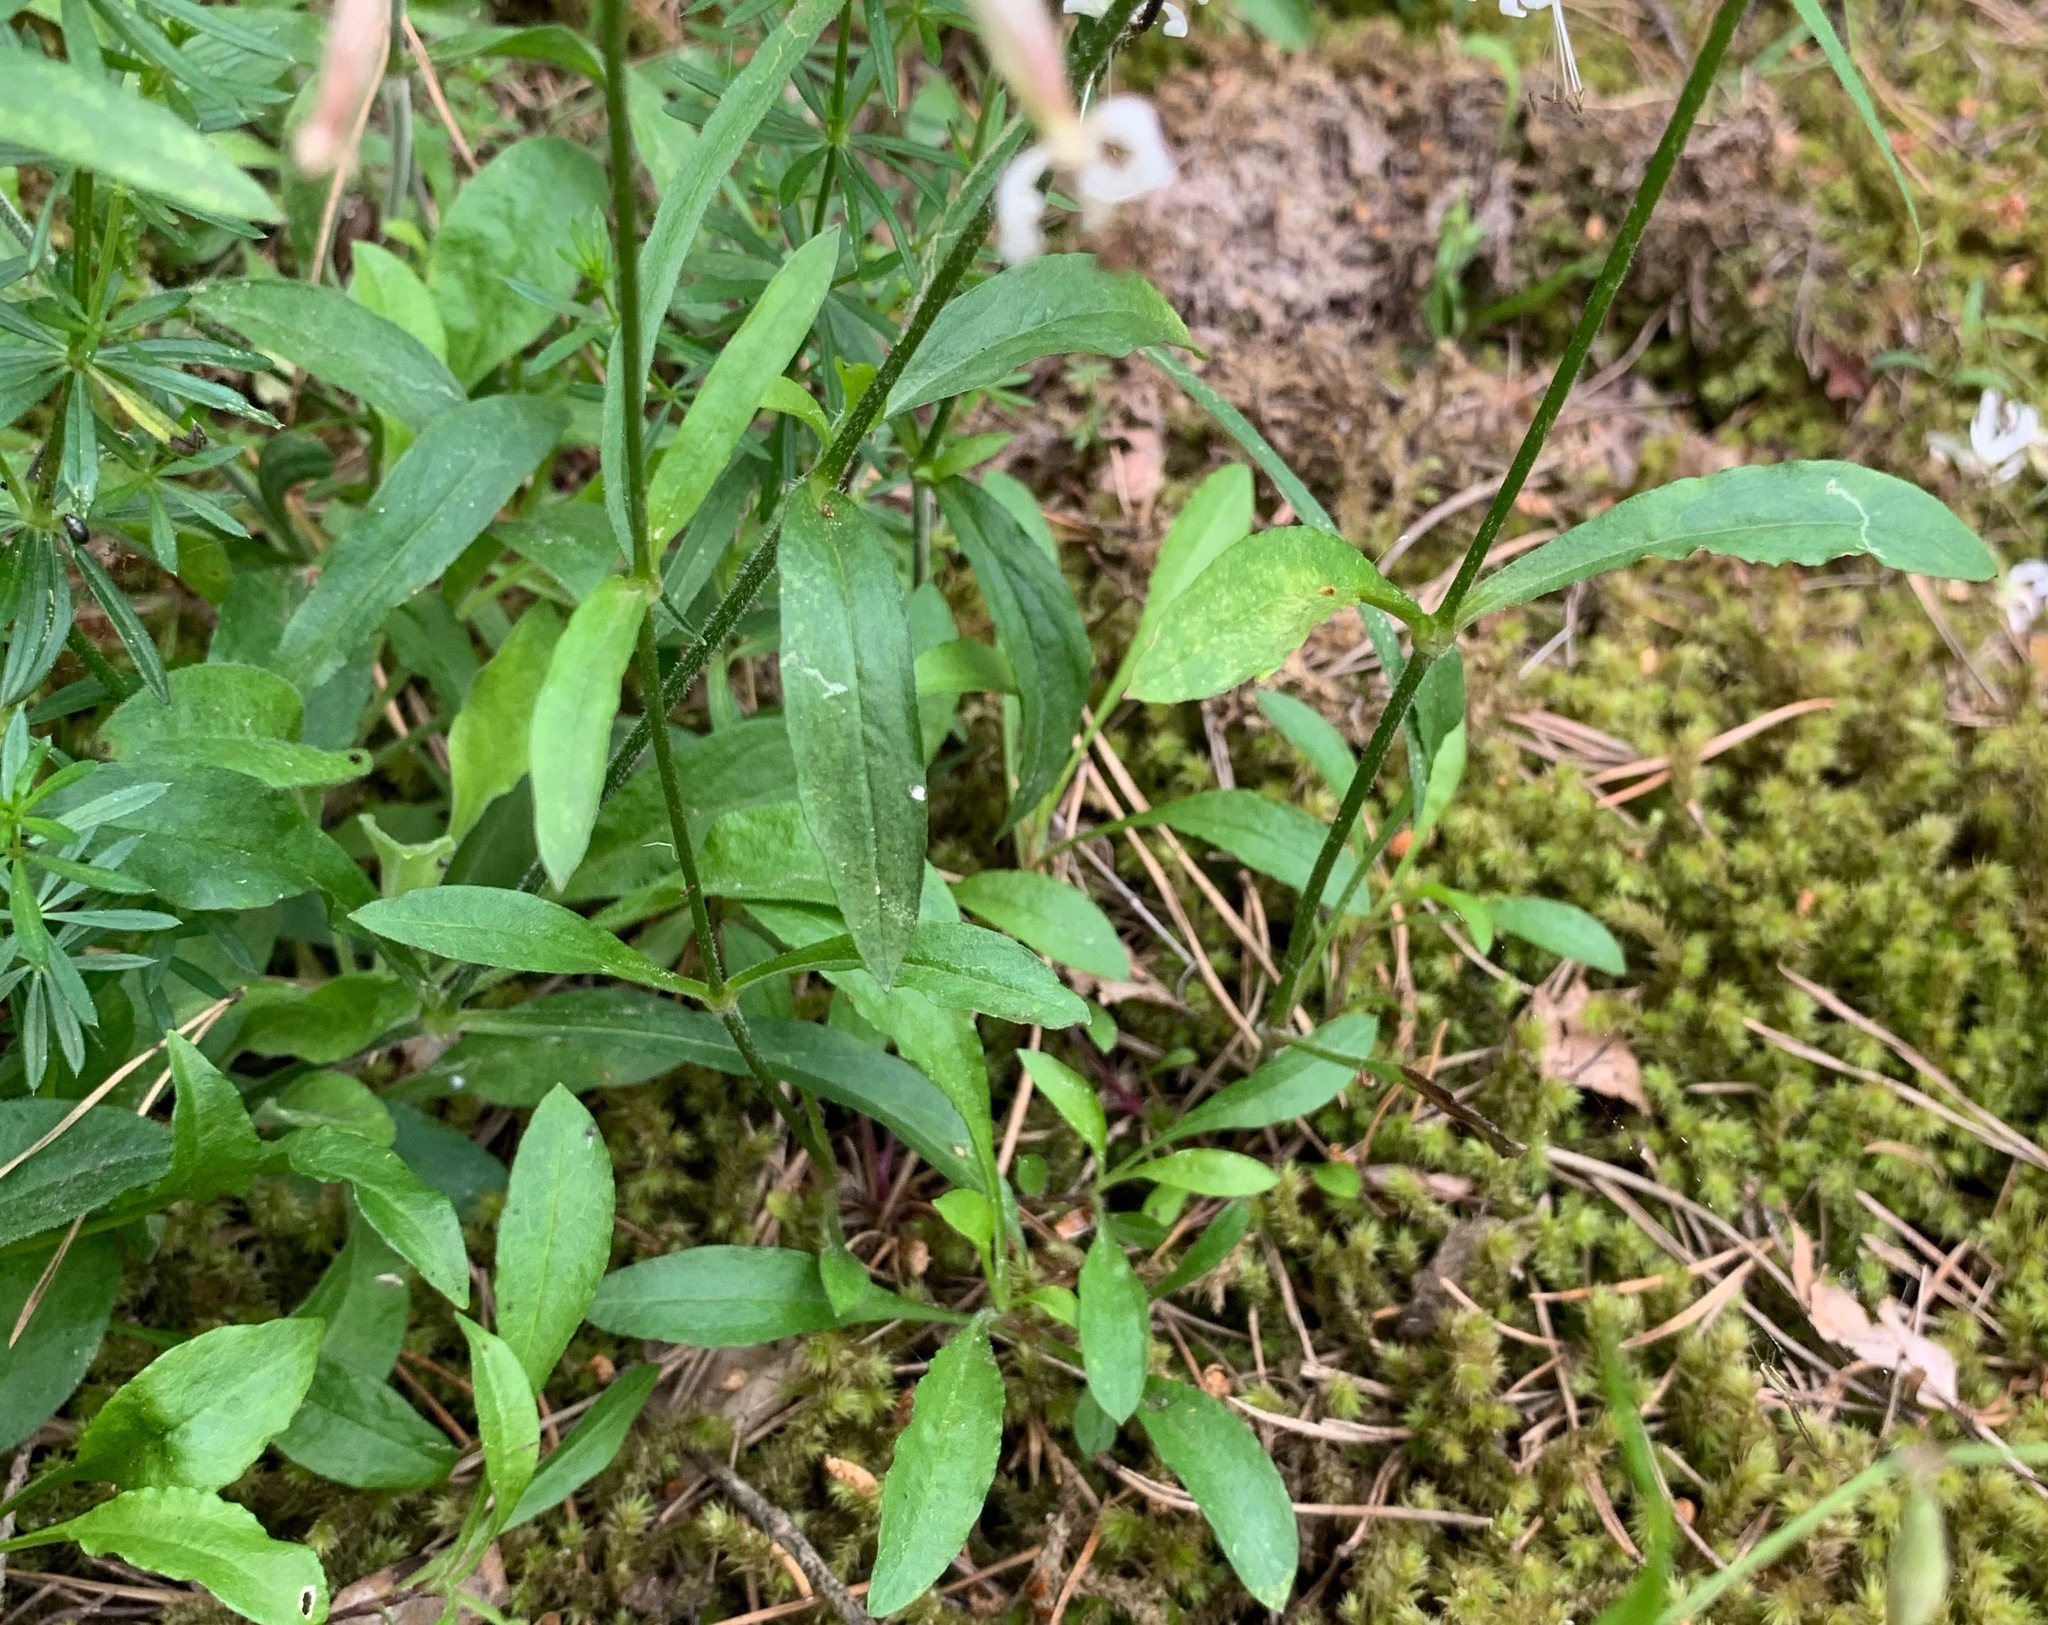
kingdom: Plantae
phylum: Tracheophyta
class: Magnoliopsida
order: Caryophyllales
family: Caryophyllaceae
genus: Silene
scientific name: Silene nutans
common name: Nottingham catchfly
